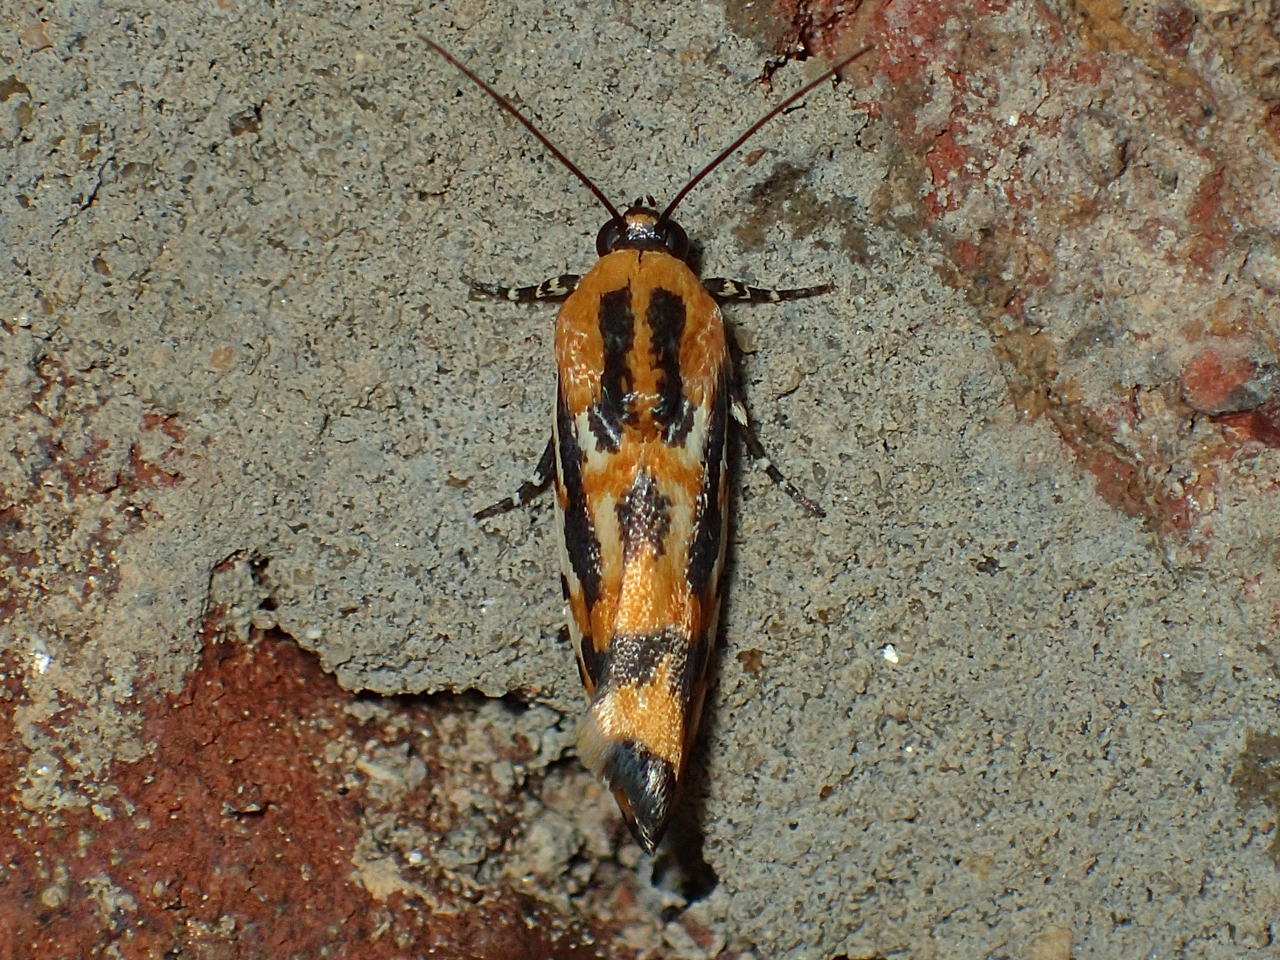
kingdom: Animalia
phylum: Arthropoda
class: Insecta
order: Lepidoptera
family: Noctuidae
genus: Acontia
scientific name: Acontia leo
